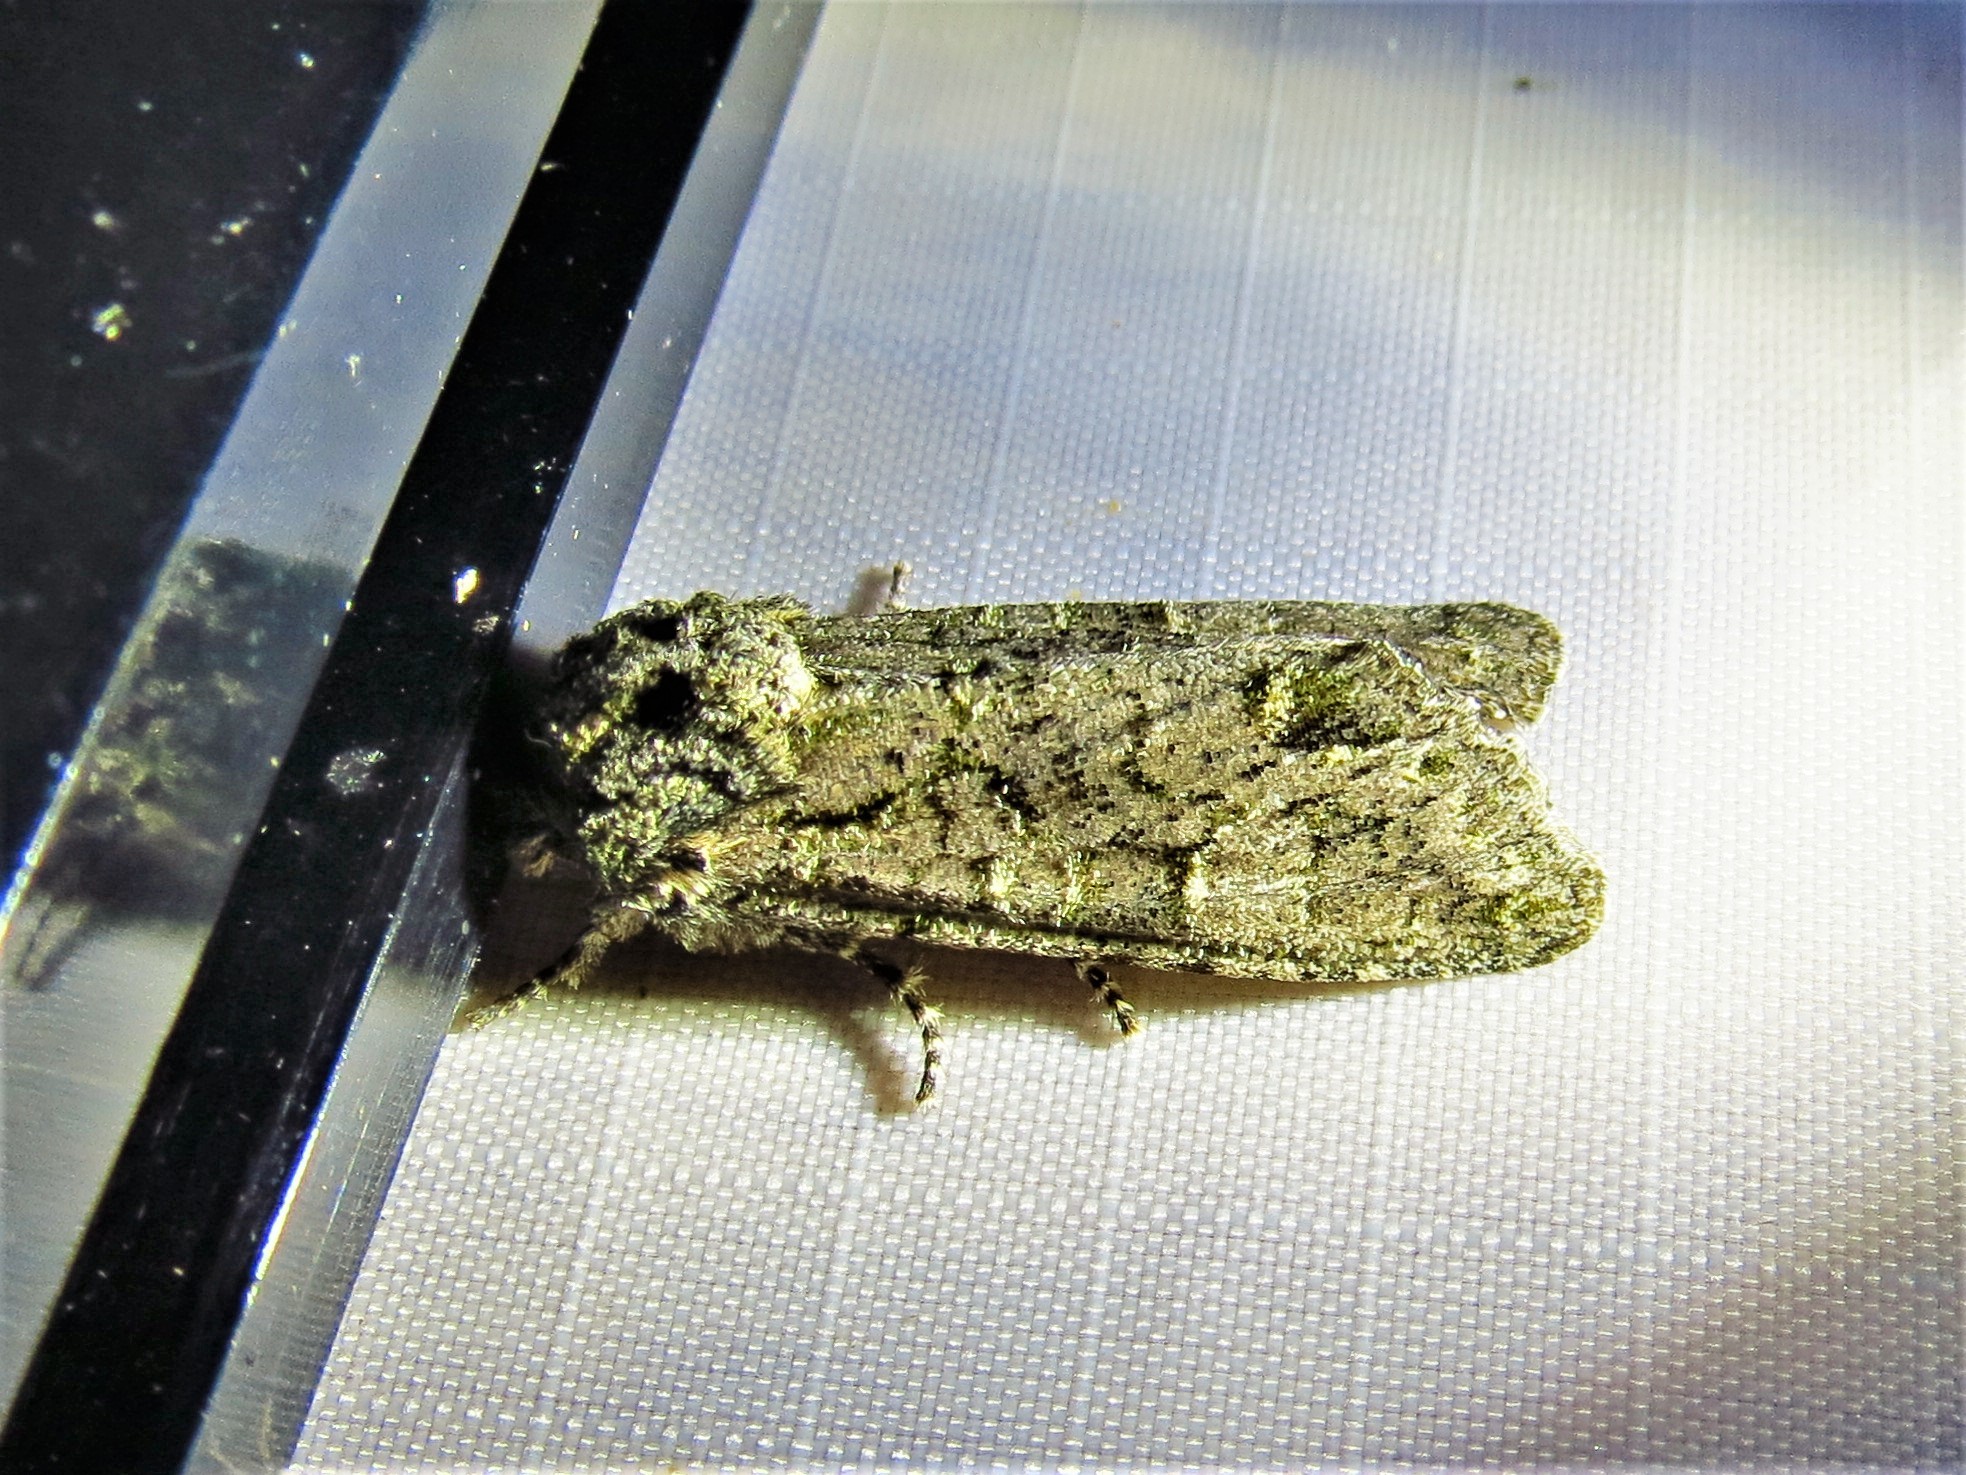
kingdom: Animalia
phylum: Arthropoda
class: Insecta
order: Lepidoptera
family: Noctuidae
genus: Psaphida
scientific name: Psaphida grotei
